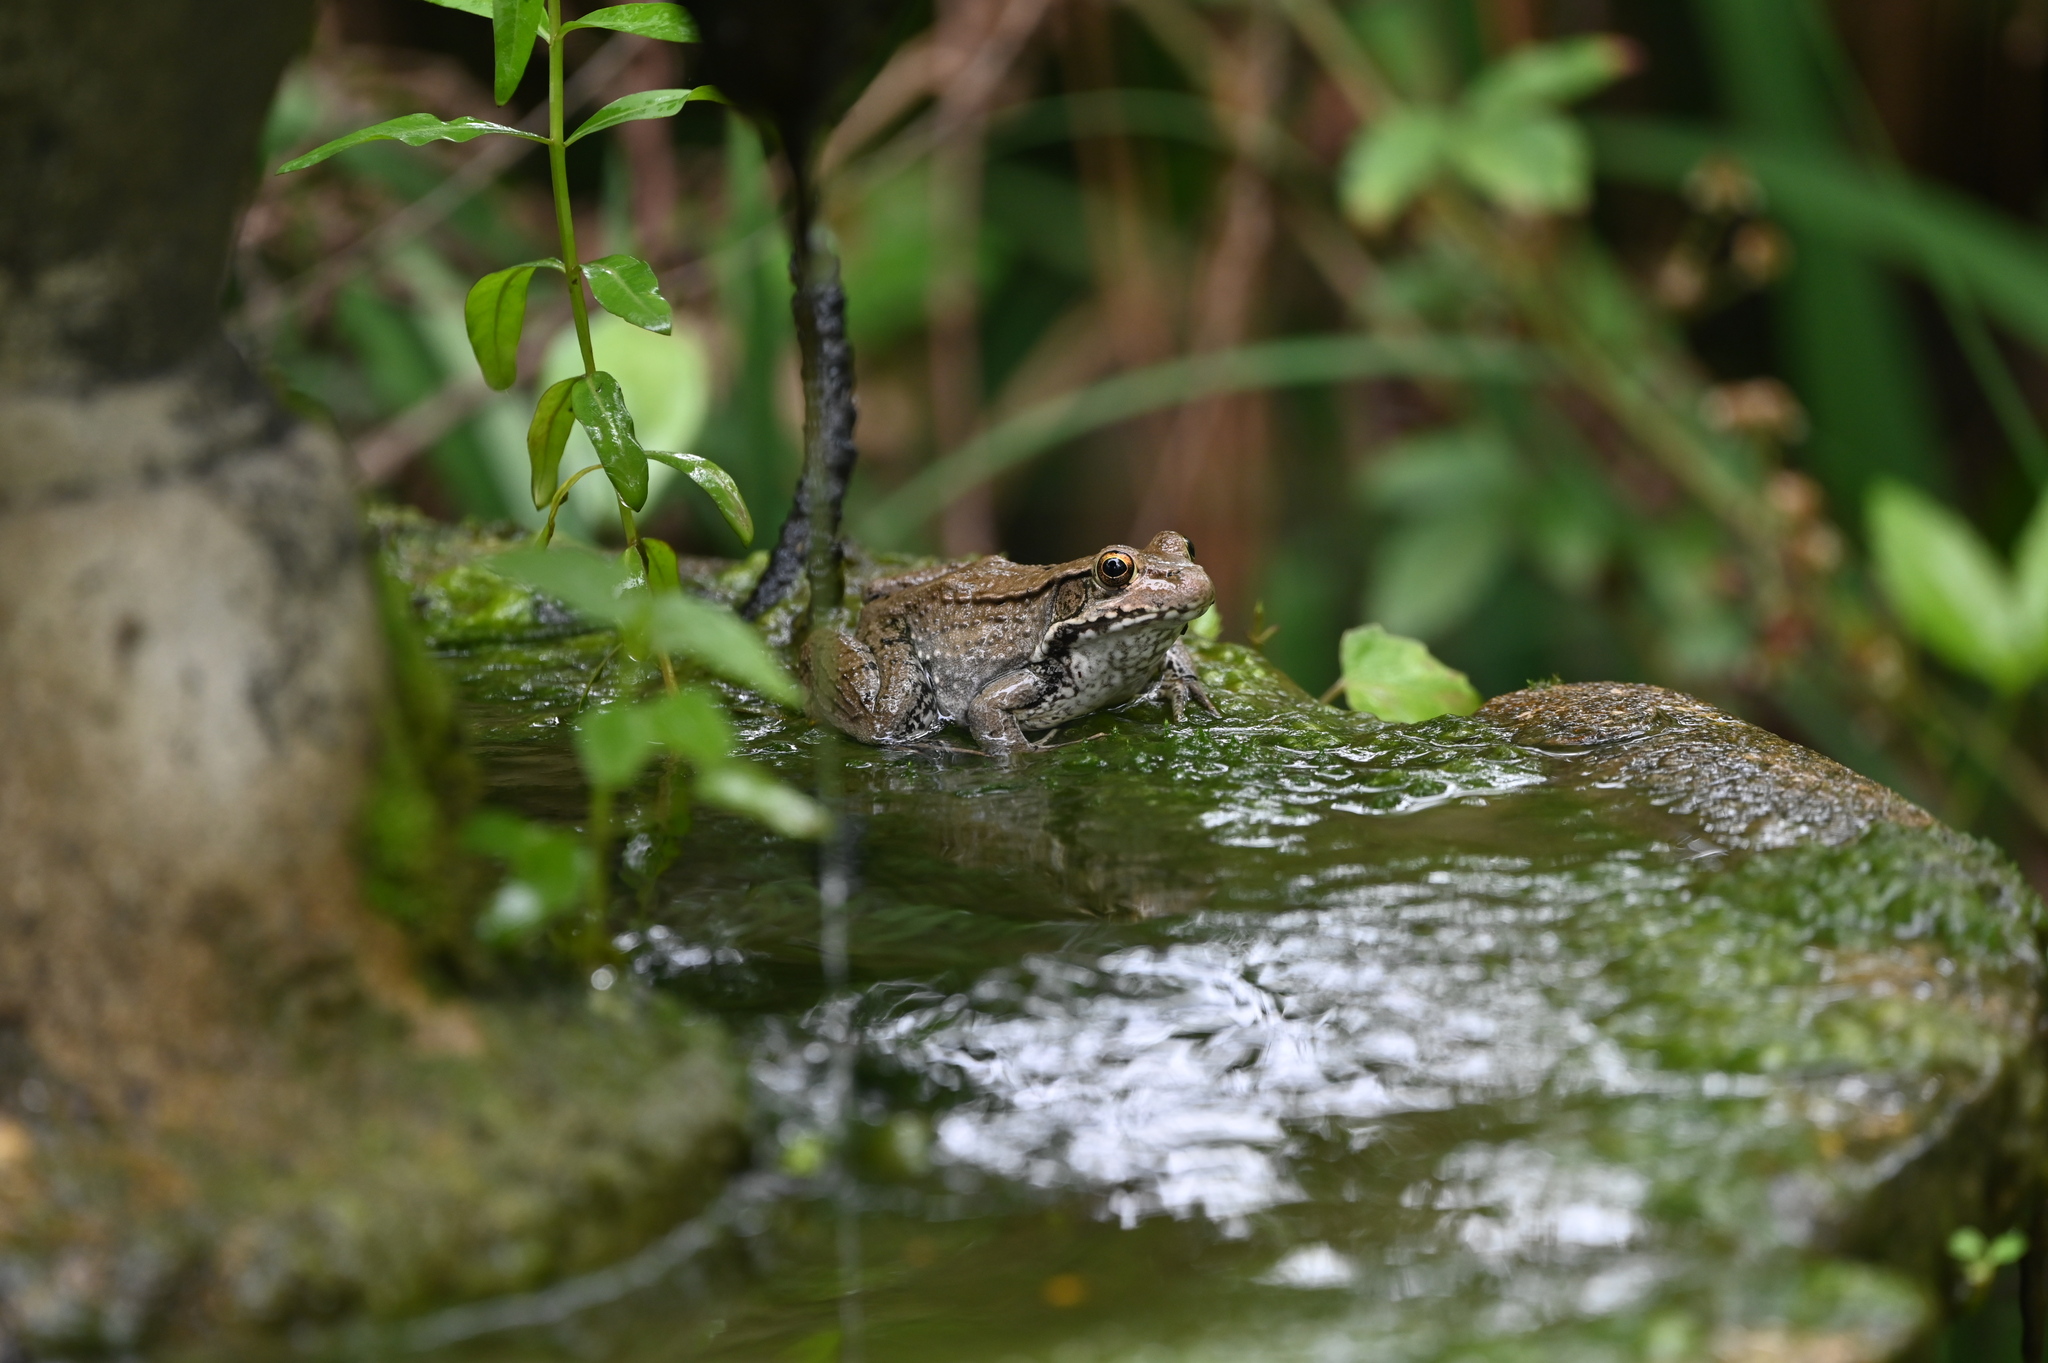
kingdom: Animalia
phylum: Chordata
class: Amphibia
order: Anura
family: Ranidae
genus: Lithobates
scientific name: Lithobates clamitans
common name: Green frog
